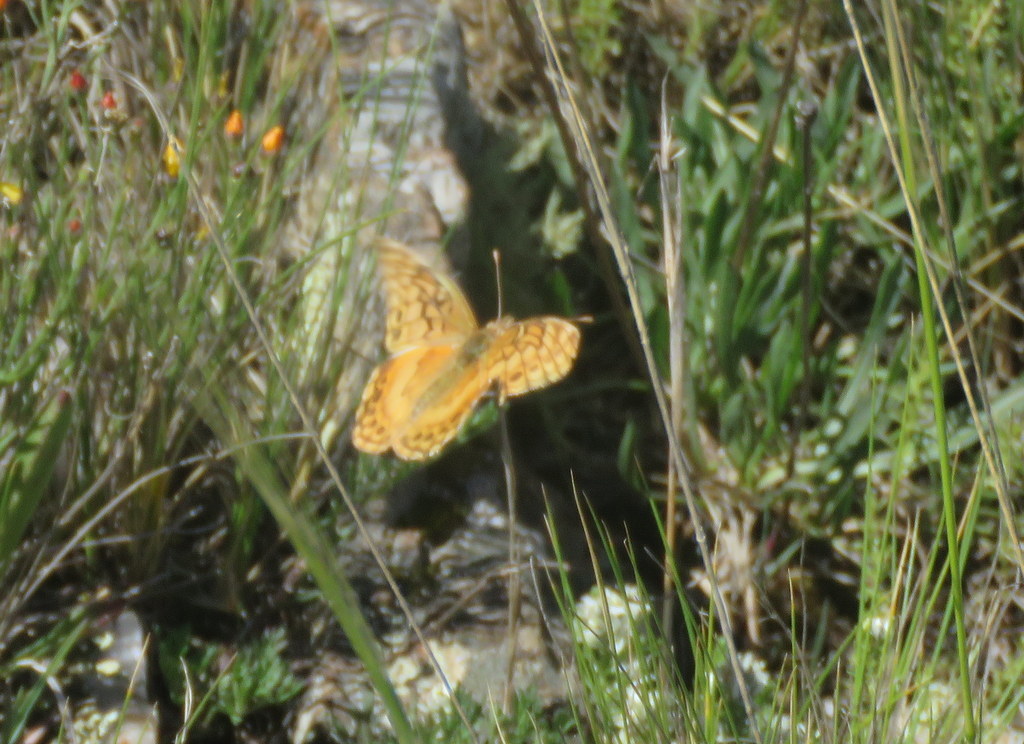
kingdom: Animalia
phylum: Arthropoda
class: Insecta
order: Lepidoptera
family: Nymphalidae
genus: Euptoieta
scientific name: Euptoieta hortensia
